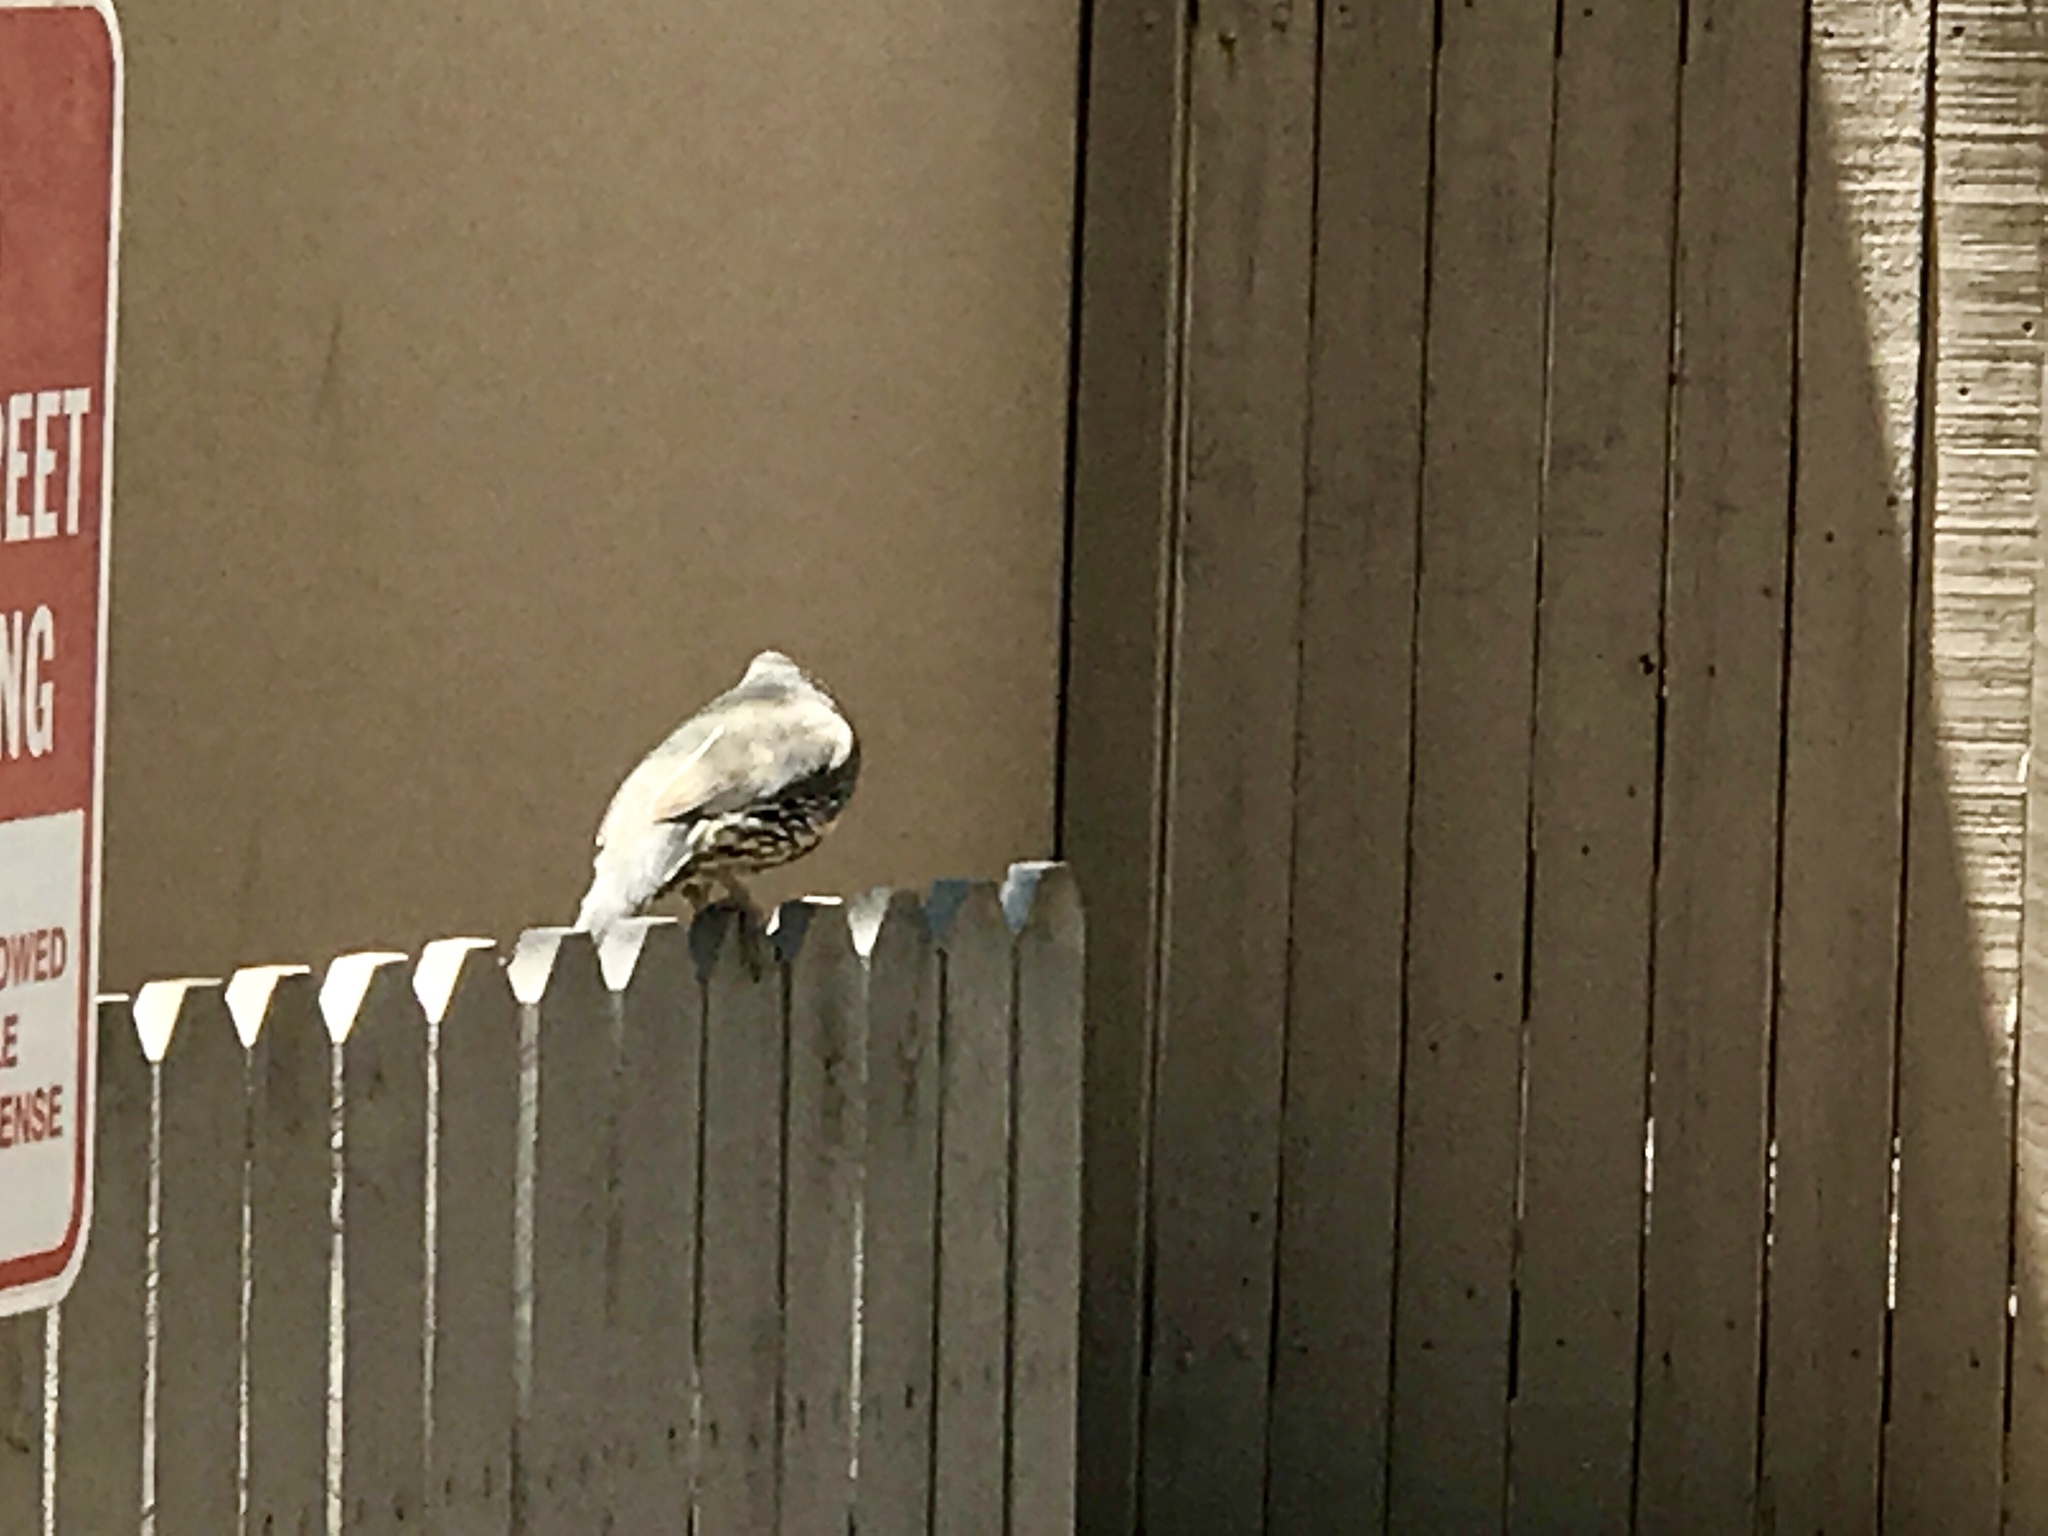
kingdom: Animalia
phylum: Chordata
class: Aves
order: Galliformes
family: Odontophoridae
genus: Callipepla
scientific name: Callipepla gambelii
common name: Gambel's quail
